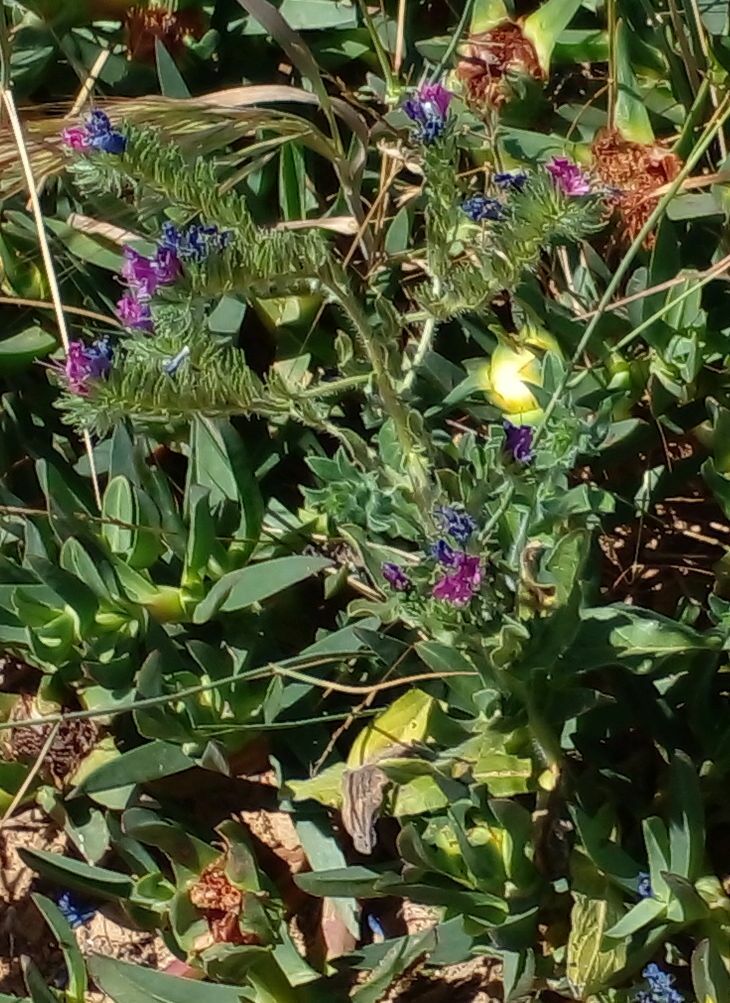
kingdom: Plantae
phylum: Tracheophyta
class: Magnoliopsida
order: Boraginales
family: Boraginaceae
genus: Echium
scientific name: Echium plantagineum
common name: Purple viper's-bugloss
